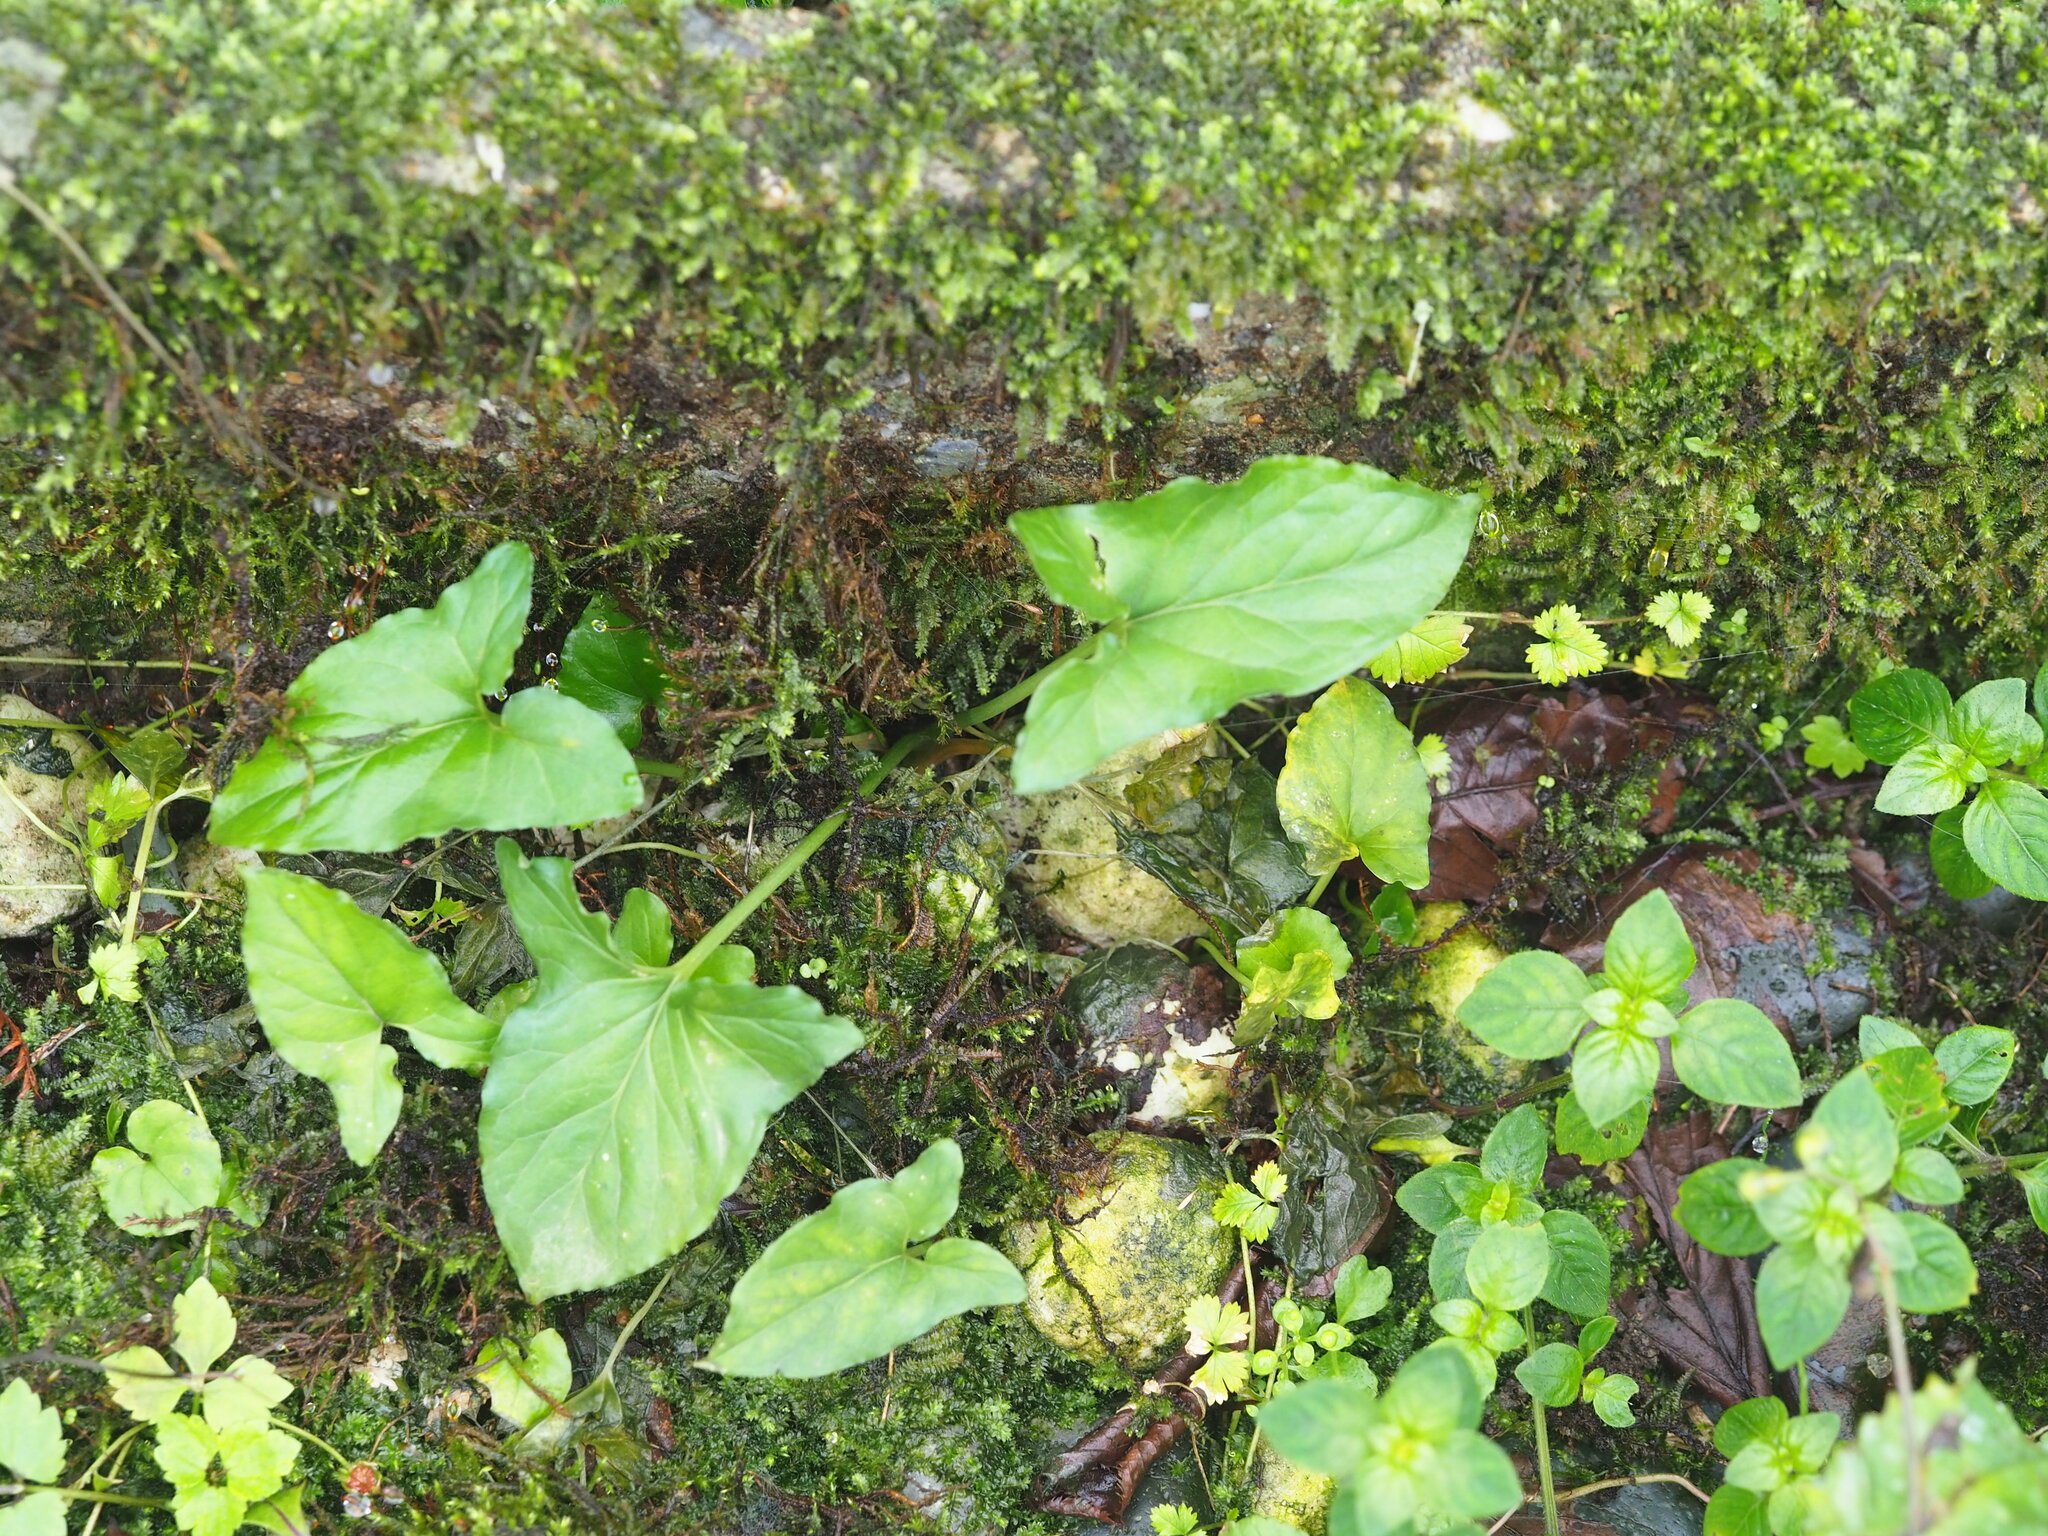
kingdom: Plantae
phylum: Tracheophyta
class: Liliopsida
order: Alismatales
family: Araceae
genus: Typhonium
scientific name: Typhonium blumei
